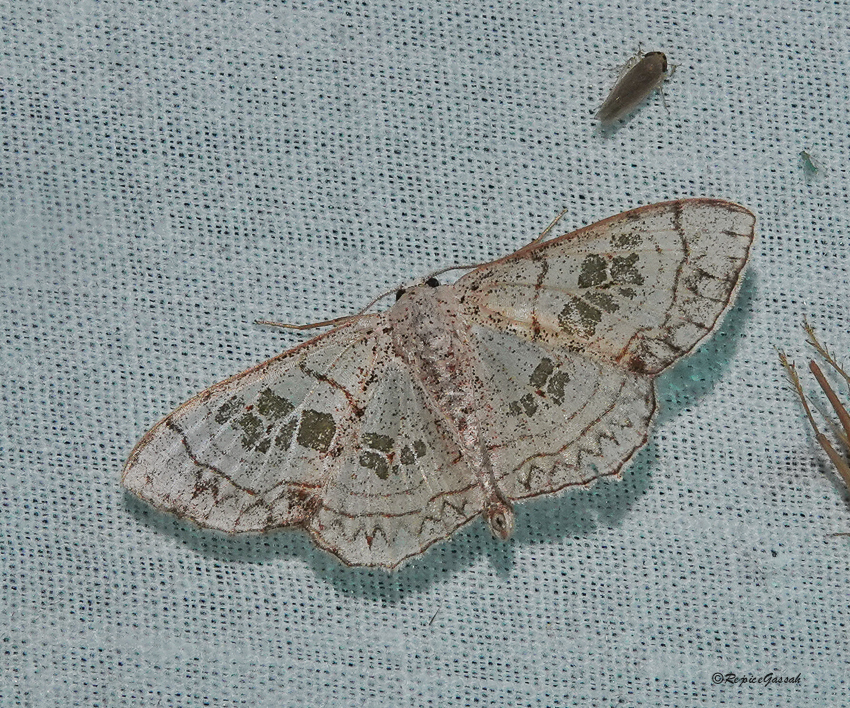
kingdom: Animalia
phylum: Arthropoda
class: Insecta
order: Lepidoptera
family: Geometridae
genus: Scopula
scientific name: Scopula
